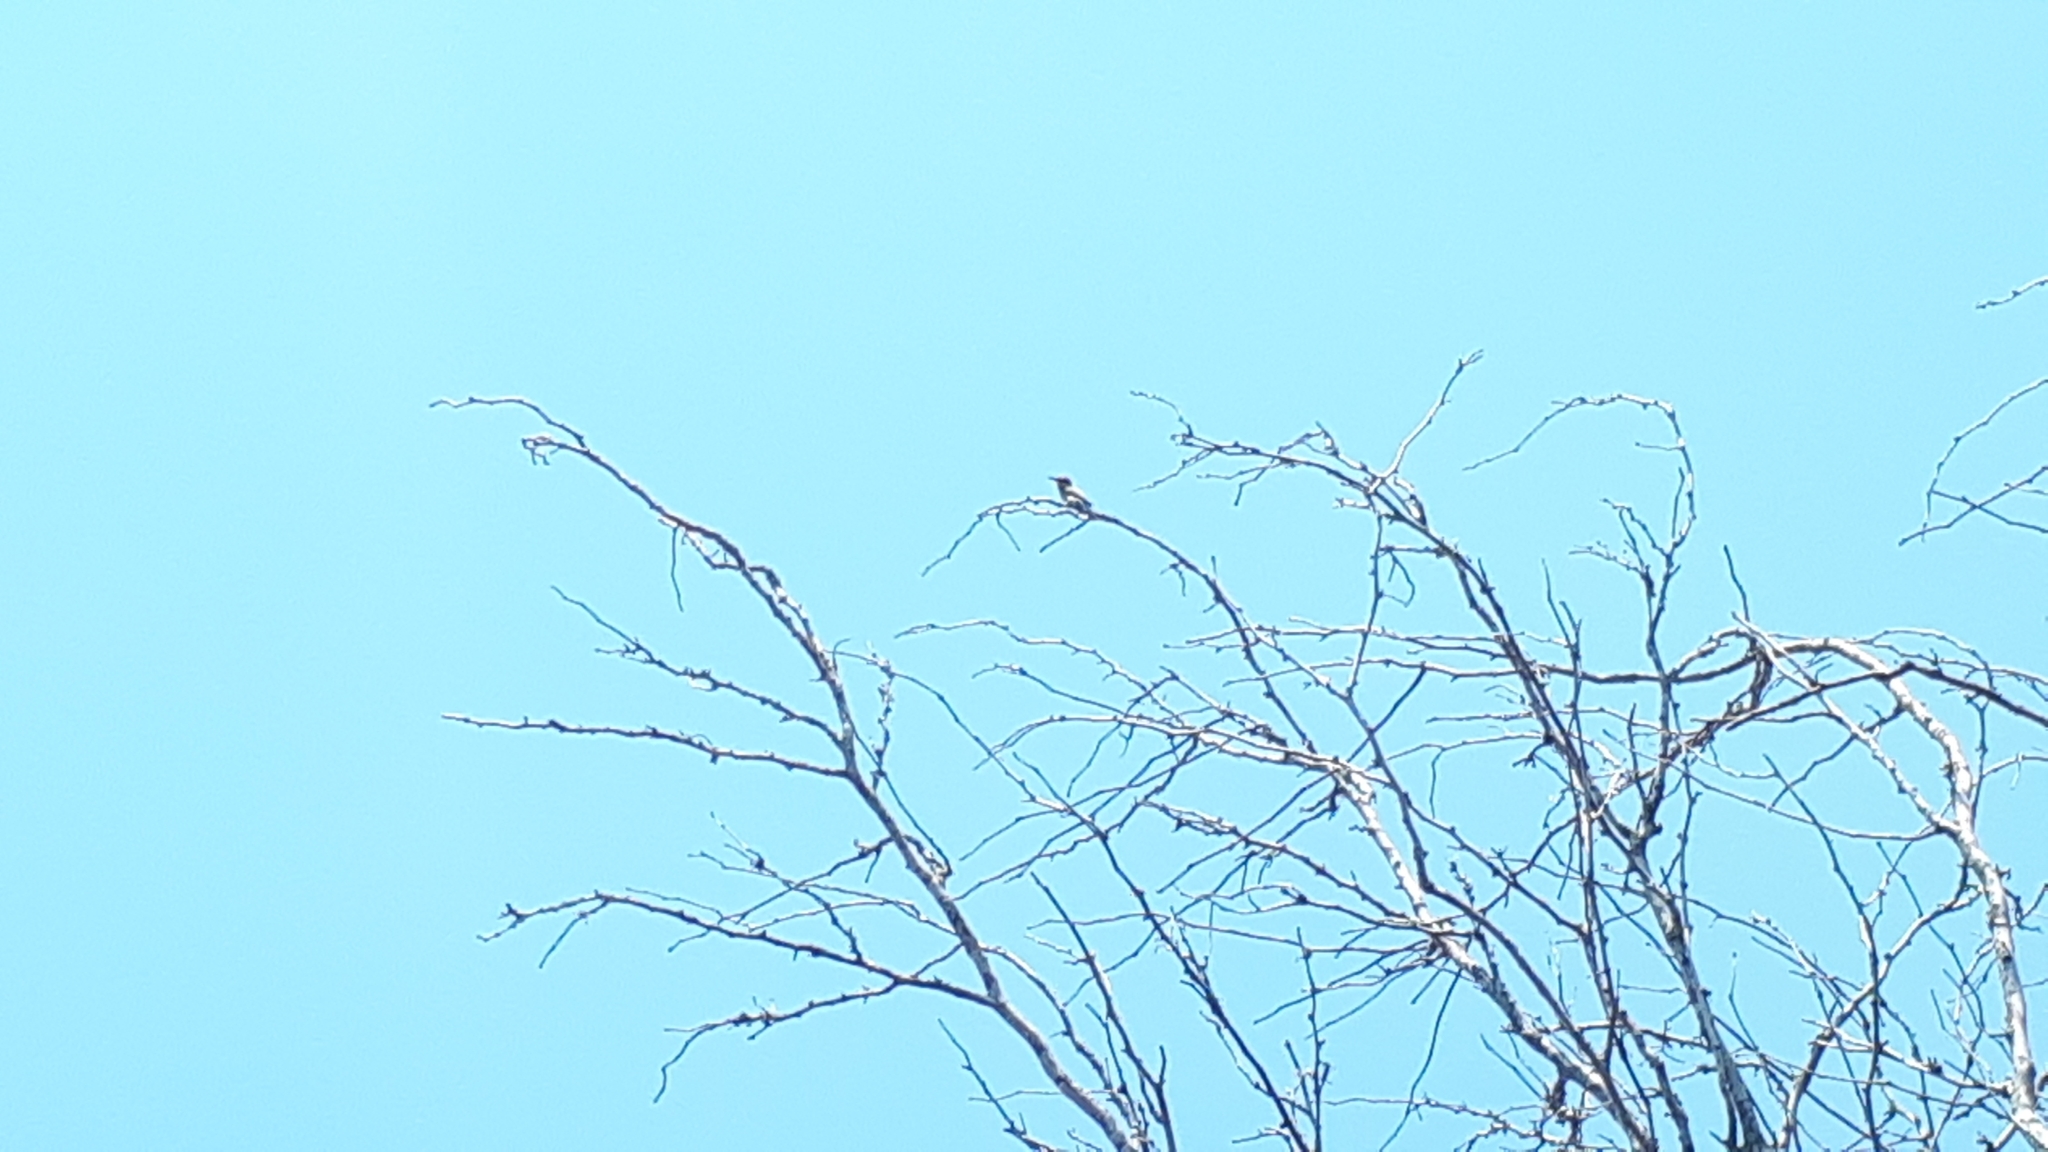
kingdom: Animalia
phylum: Chordata
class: Aves
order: Coraciiformes
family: Meropidae
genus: Merops
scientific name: Merops ornatus
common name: Rainbow bee-eater
